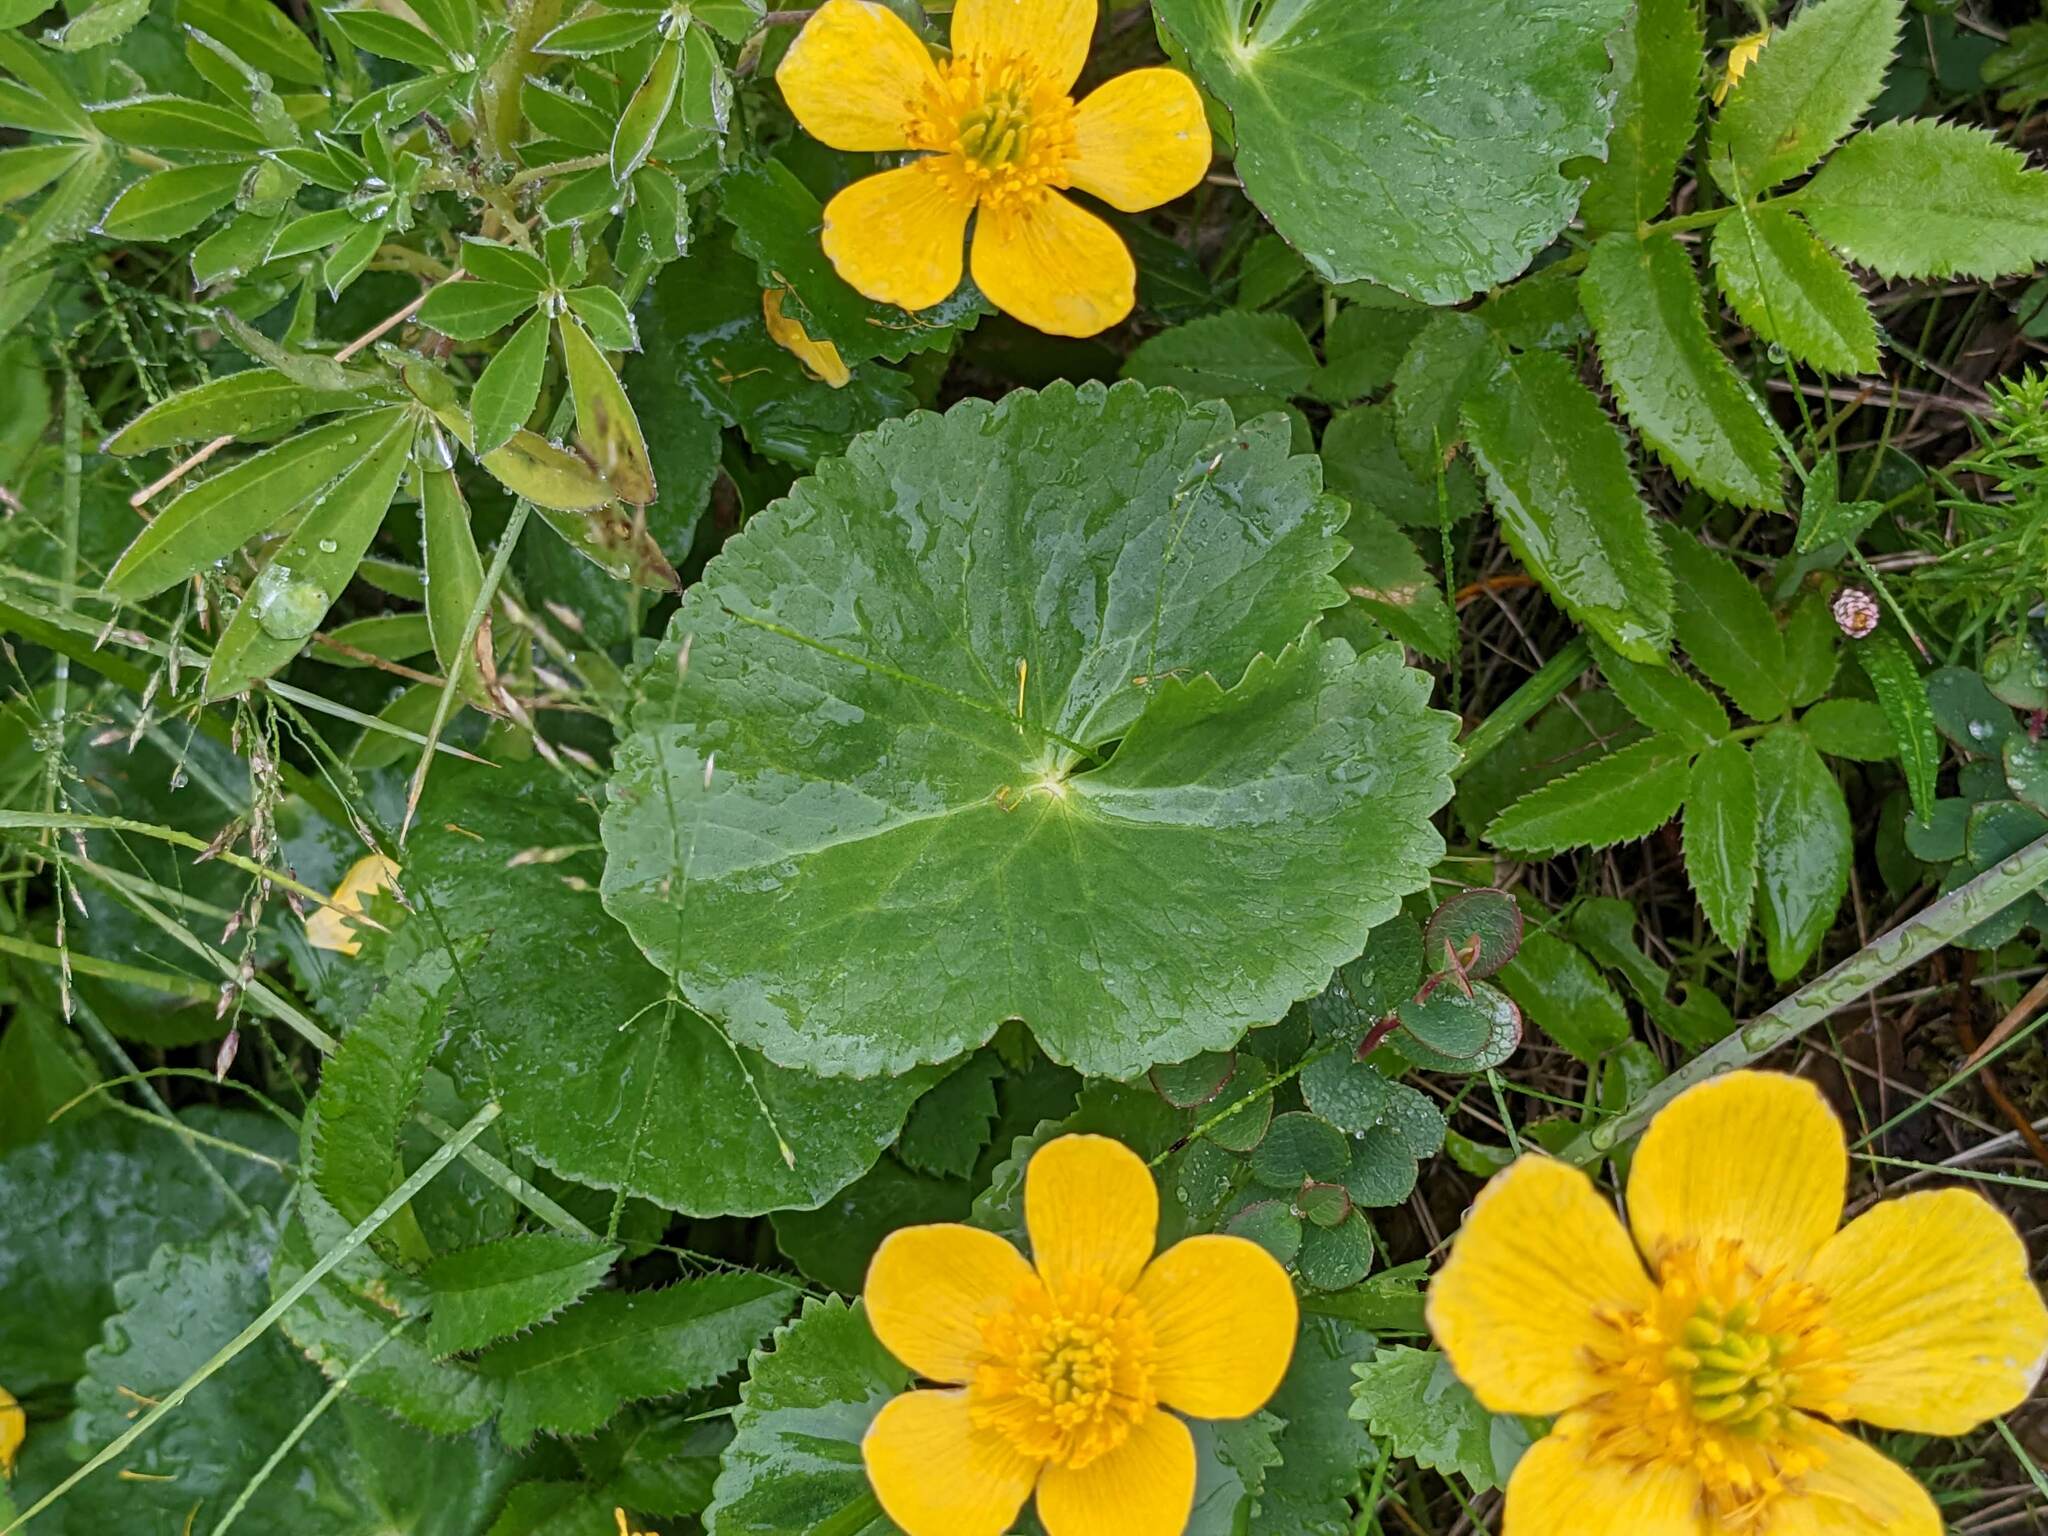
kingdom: Plantae
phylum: Tracheophyta
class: Magnoliopsida
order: Ranunculales
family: Ranunculaceae
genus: Caltha
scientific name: Caltha palustris
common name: Marsh marigold
